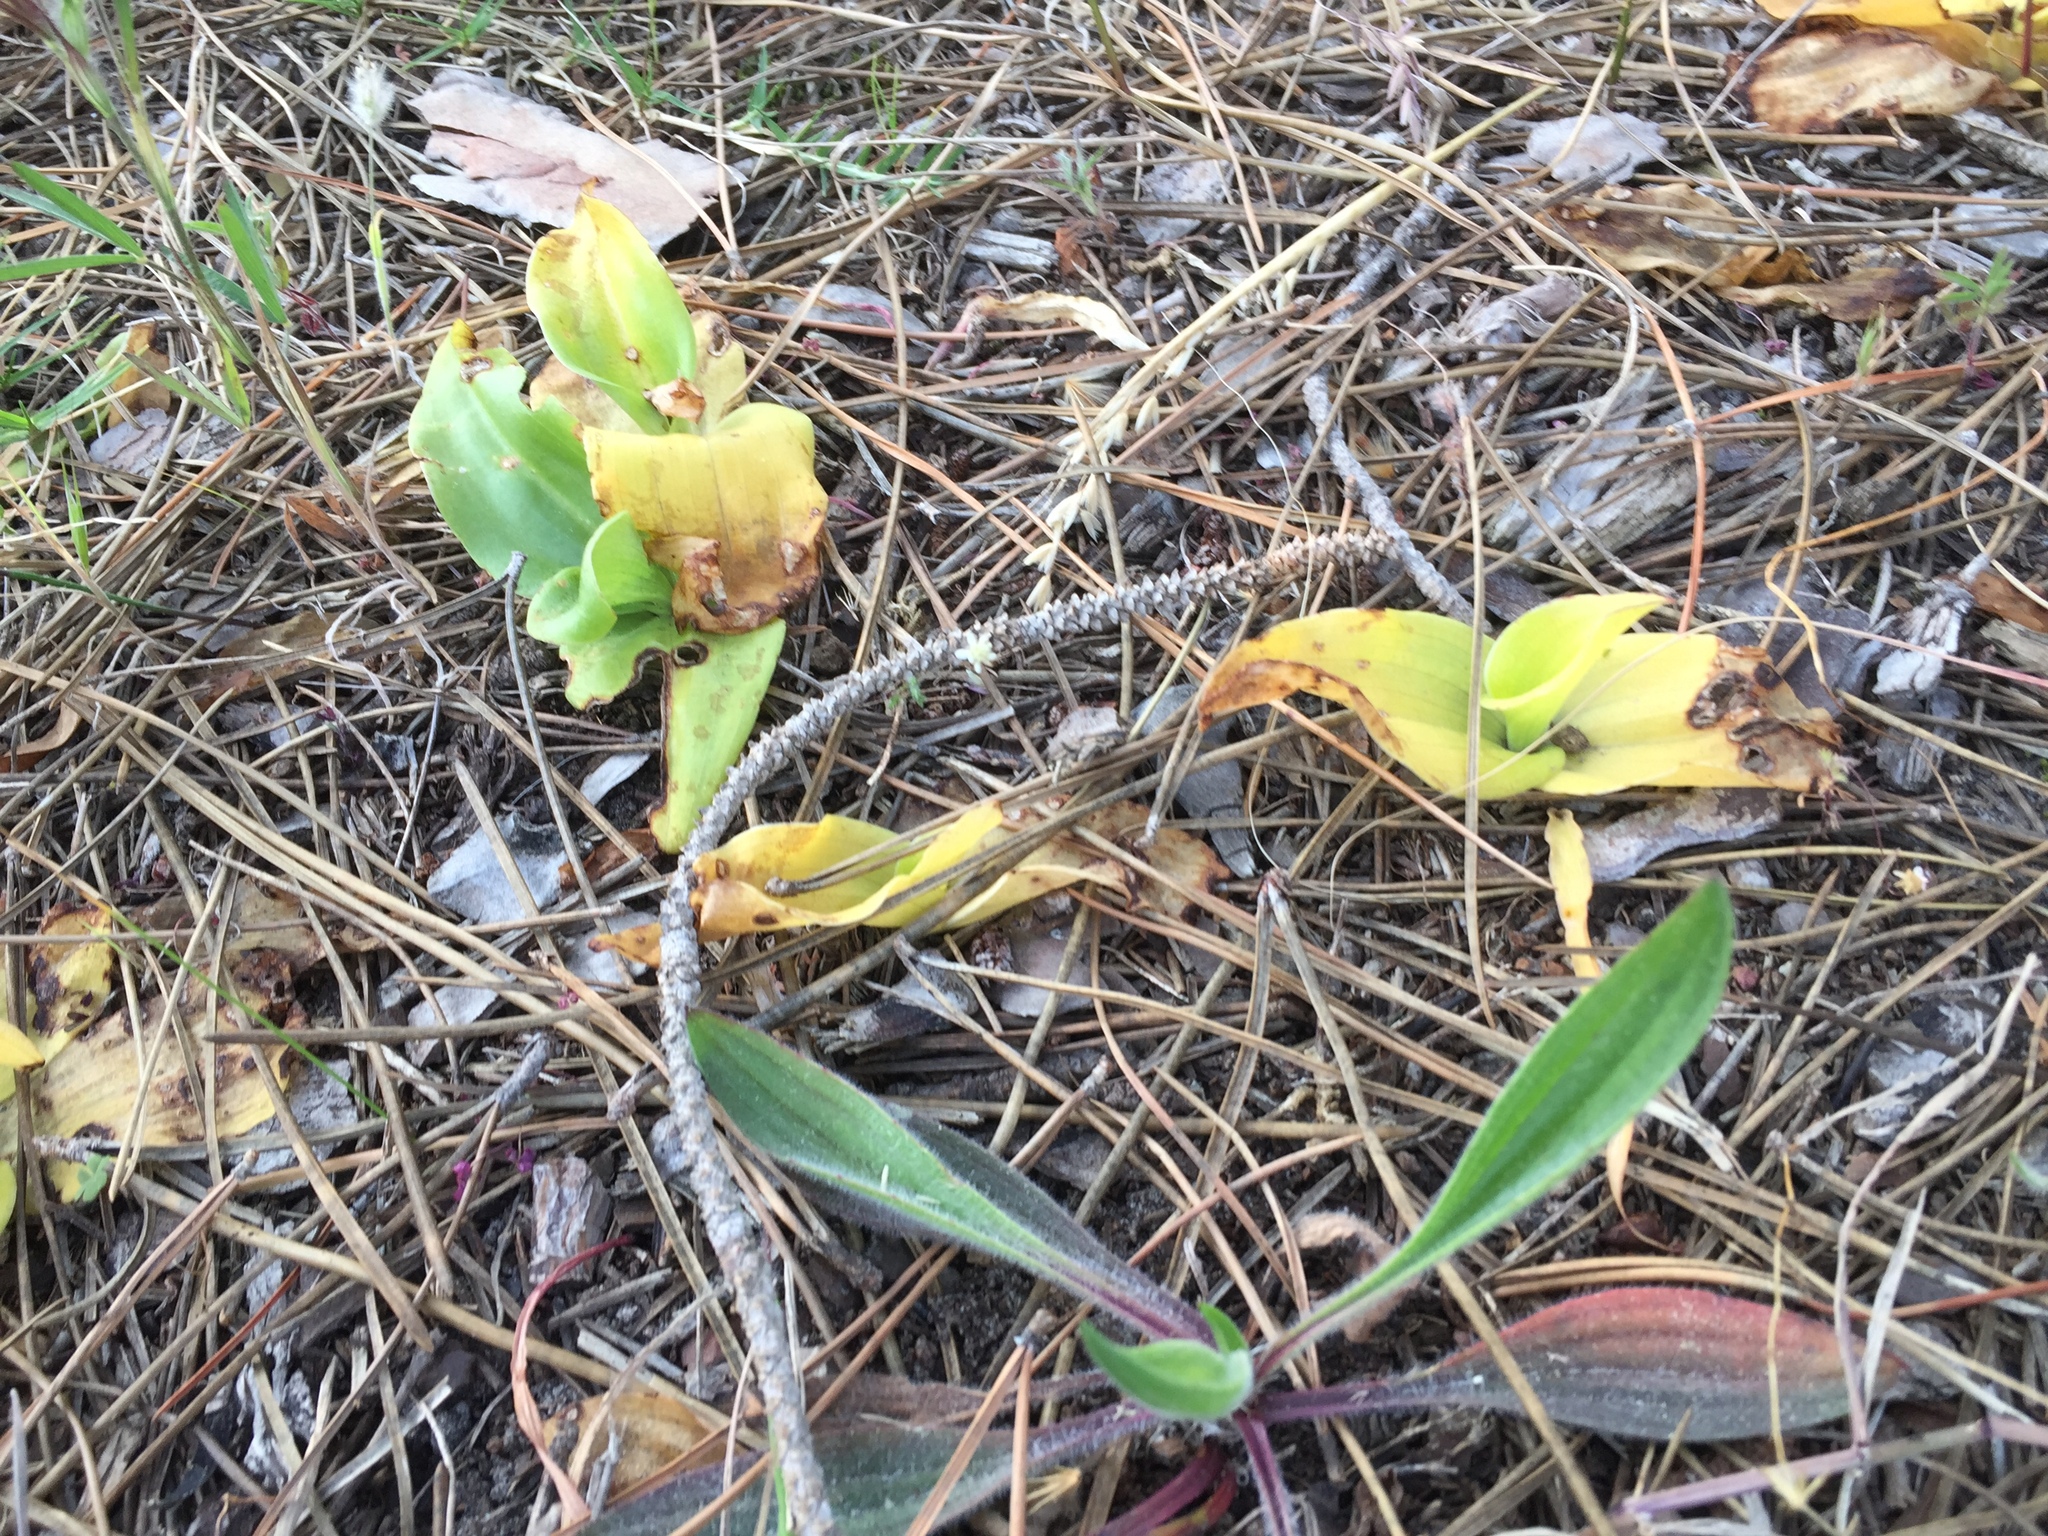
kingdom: Plantae
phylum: Tracheophyta
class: Liliopsida
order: Asparagales
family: Orchidaceae
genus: Satyrium
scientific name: Satyrium odorum
